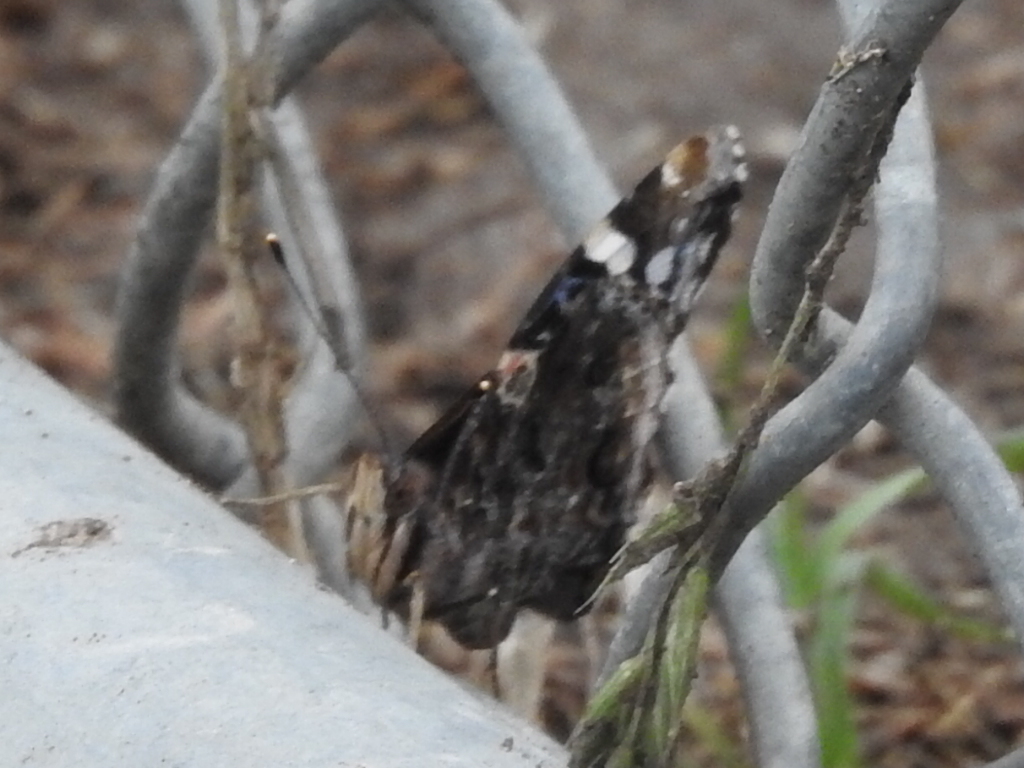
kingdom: Animalia
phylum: Arthropoda
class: Insecta
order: Lepidoptera
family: Nymphalidae
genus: Vanessa
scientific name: Vanessa atalanta
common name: Red admiral
